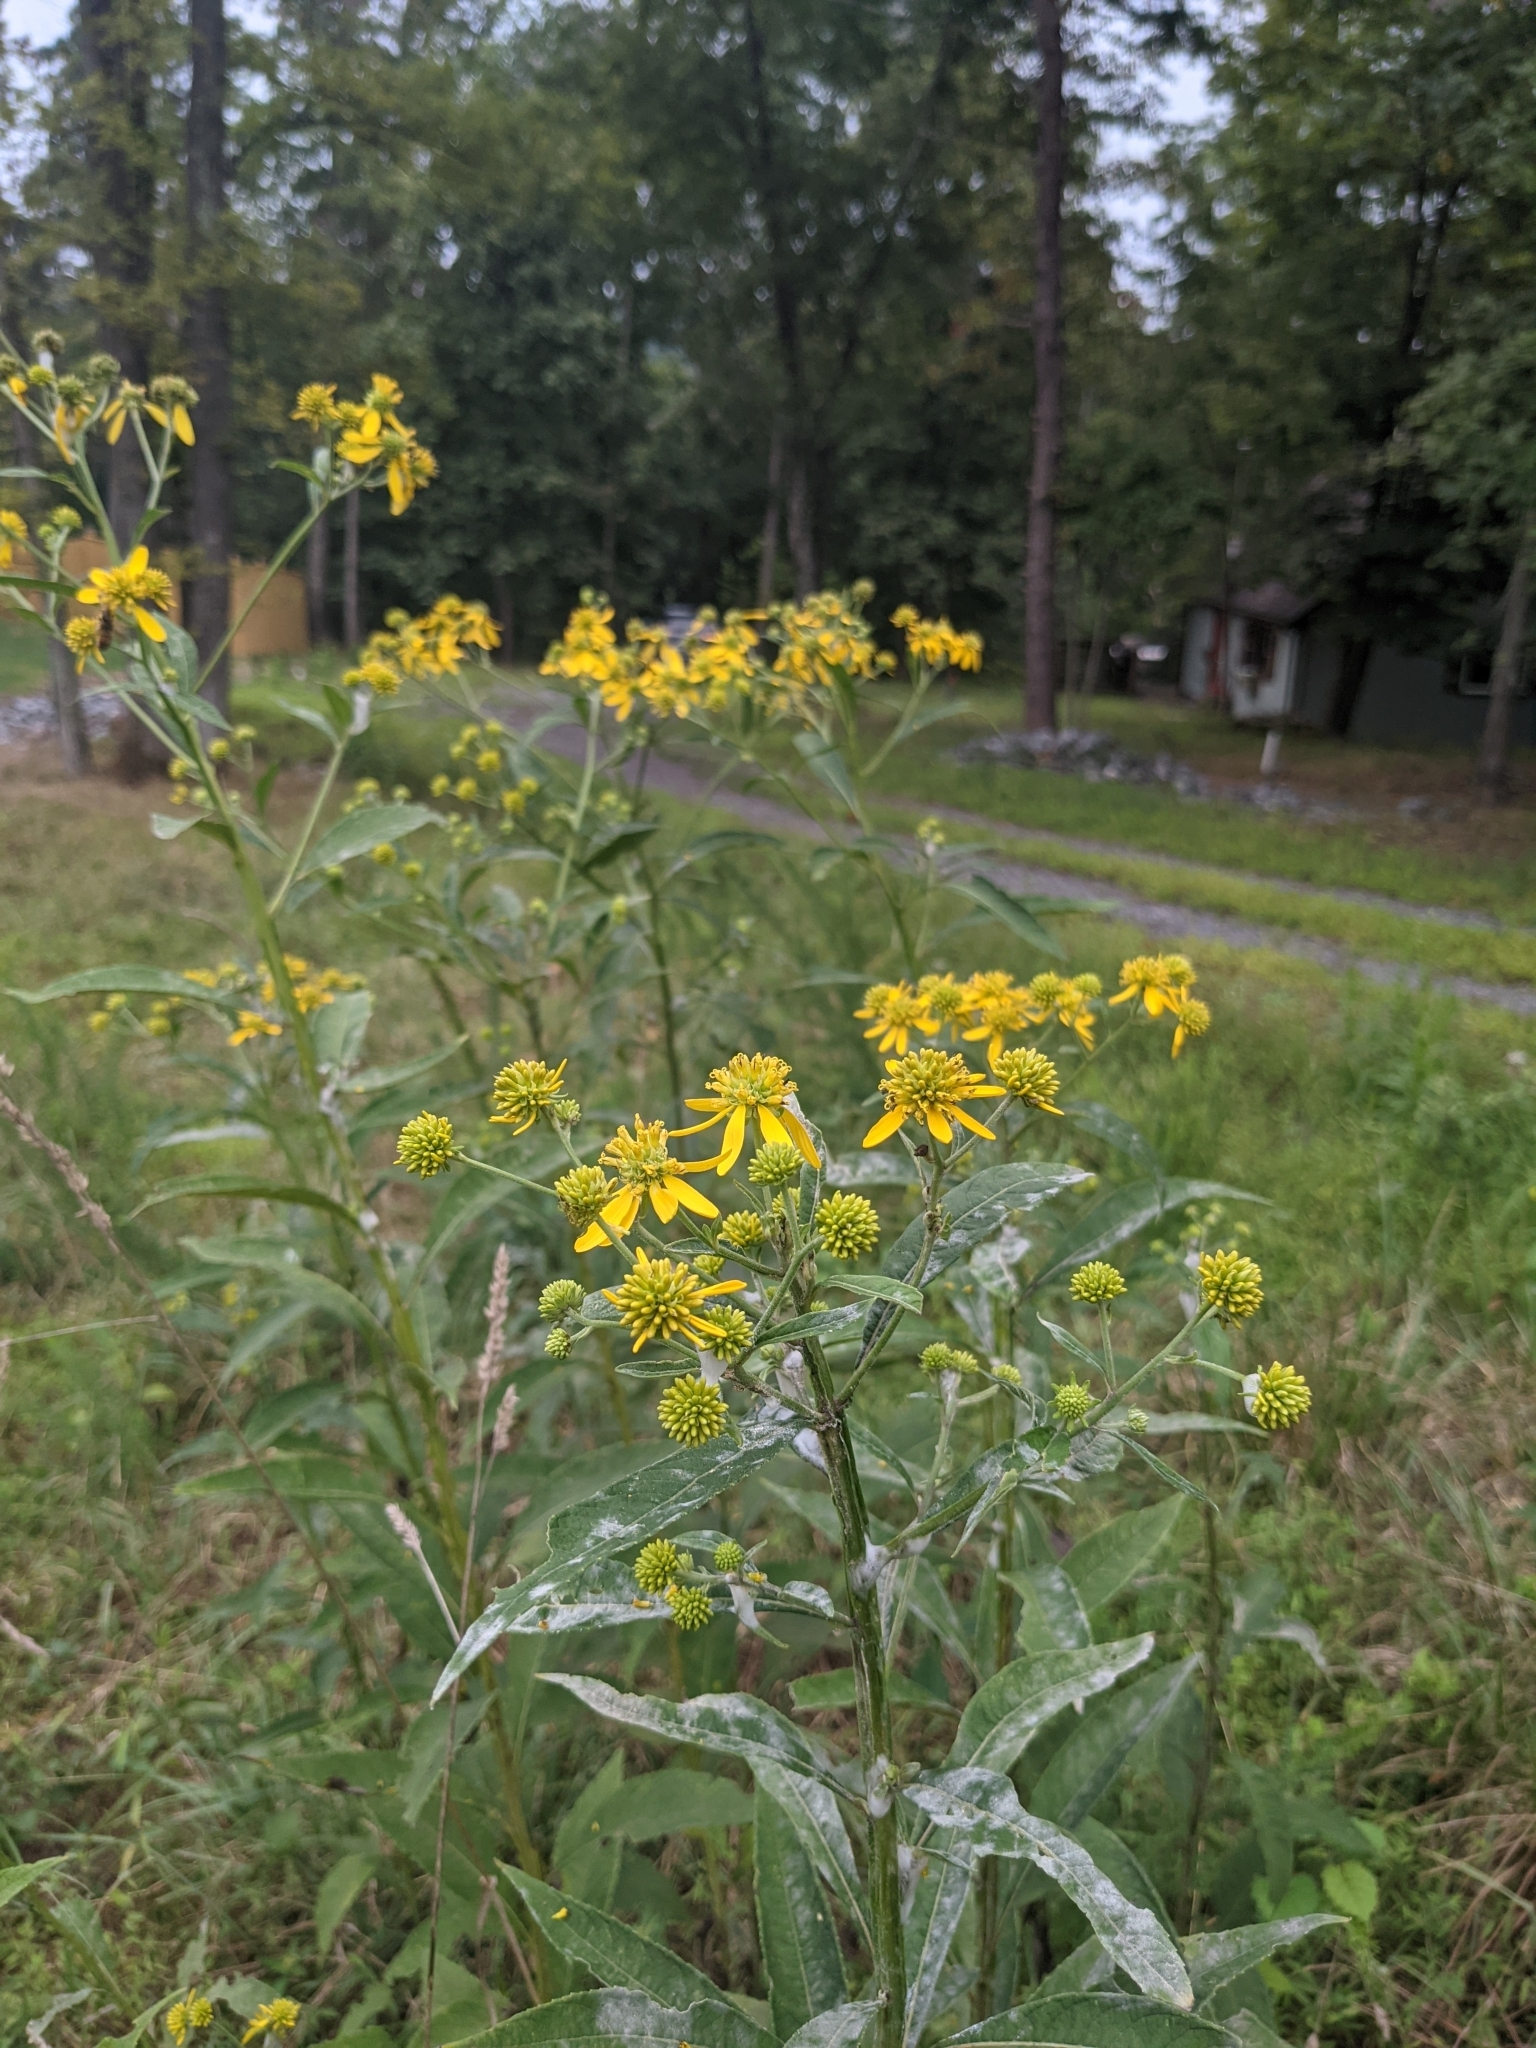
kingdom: Plantae
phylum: Tracheophyta
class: Magnoliopsida
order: Asterales
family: Asteraceae
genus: Verbesina
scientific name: Verbesina alternifolia
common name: Wingstem
